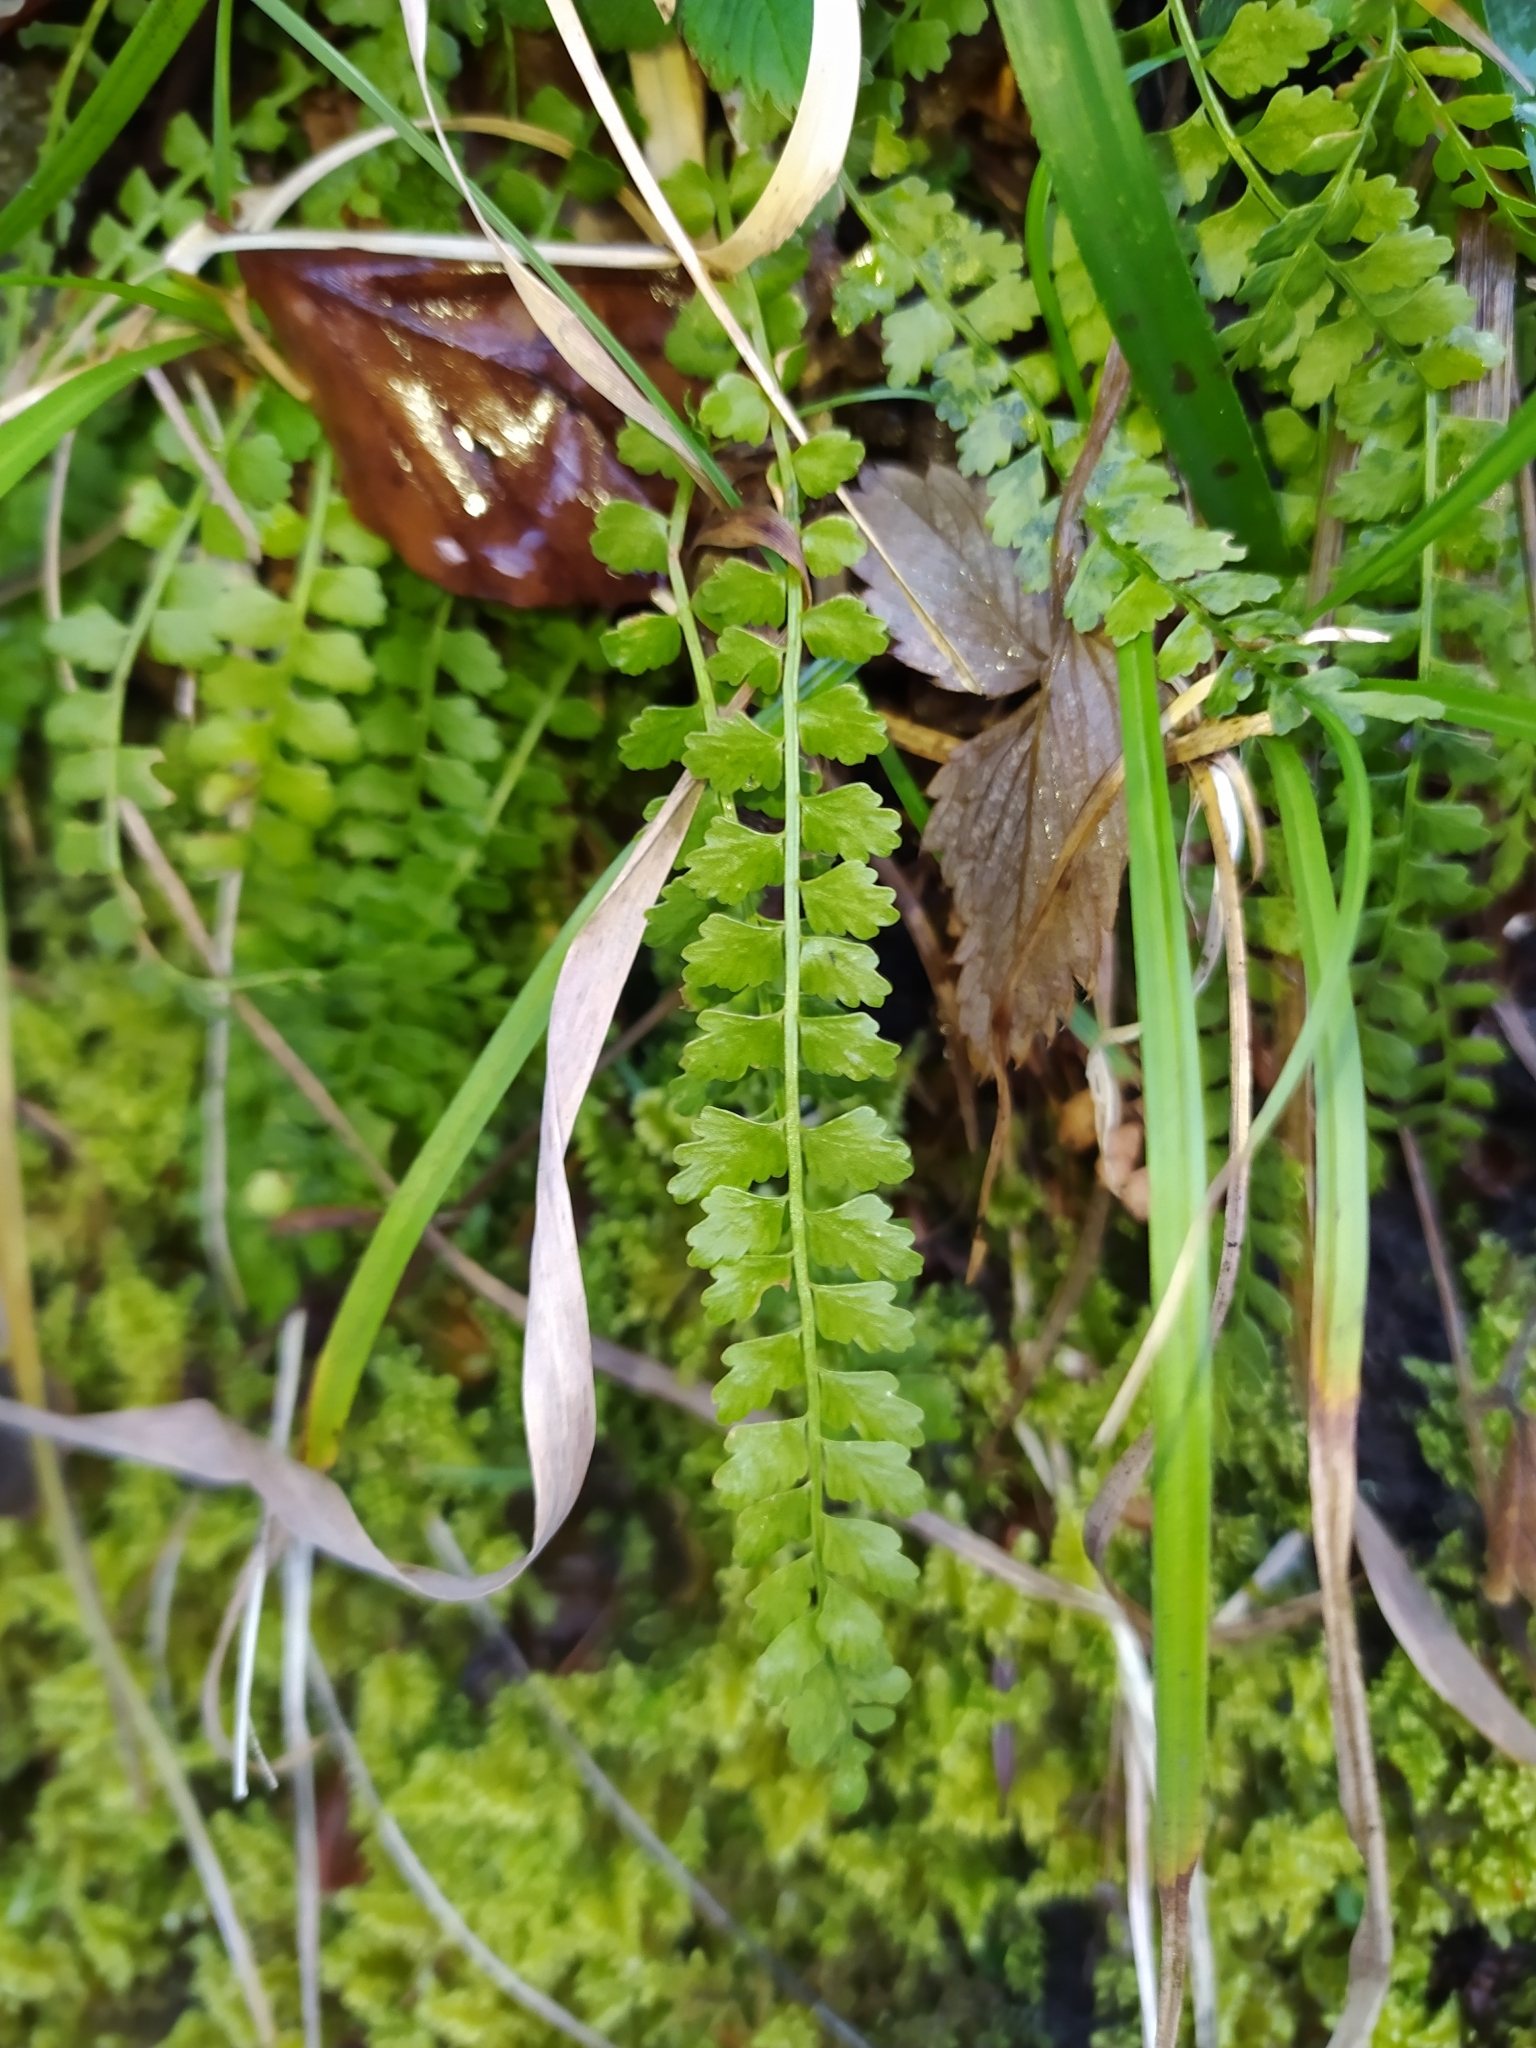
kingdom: Plantae
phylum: Tracheophyta
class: Polypodiopsida
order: Polypodiales
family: Aspleniaceae
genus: Asplenium
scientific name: Asplenium viride
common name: Green spleenwort
